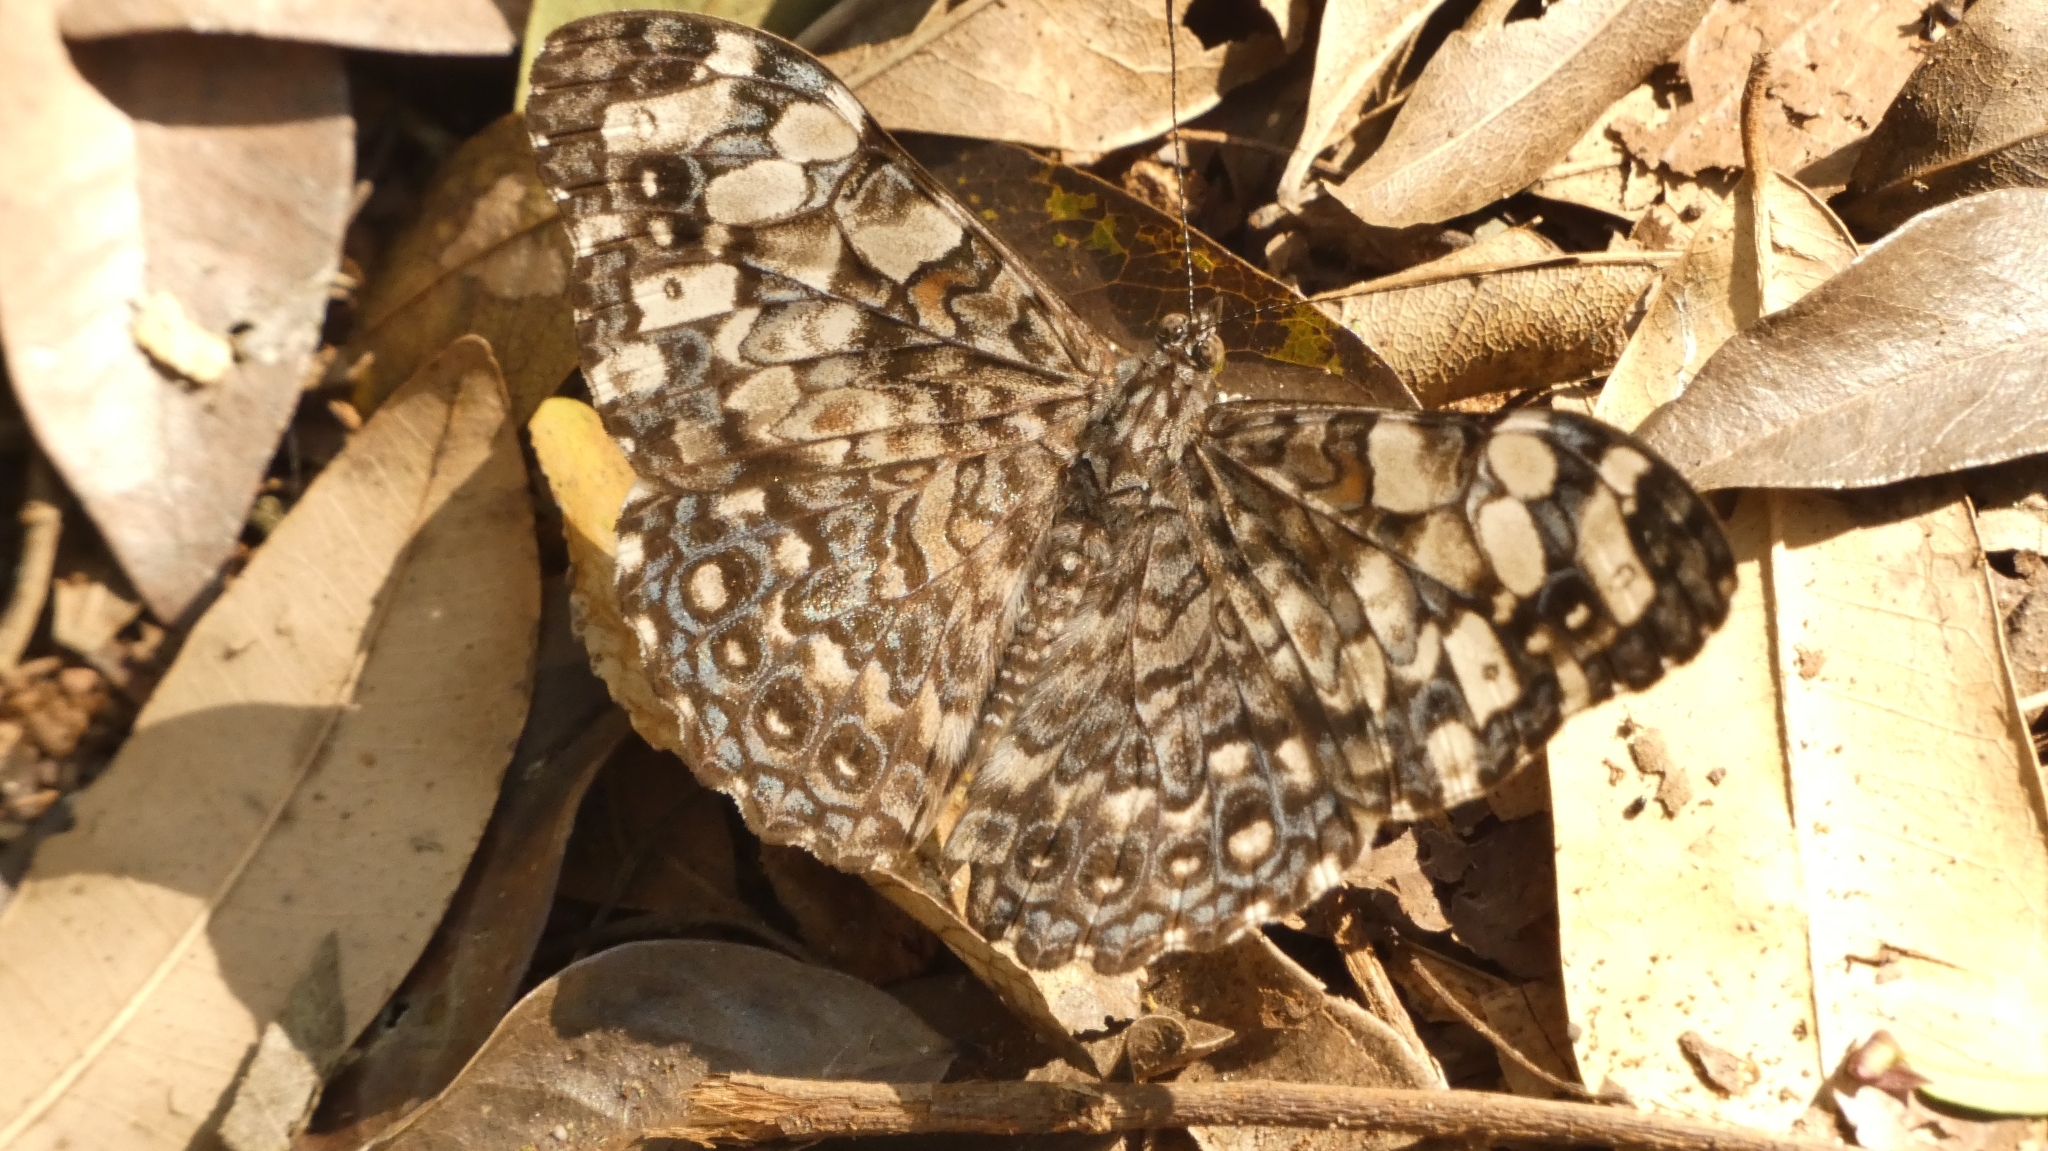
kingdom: Animalia
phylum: Arthropoda
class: Insecta
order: Lepidoptera
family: Nymphalidae
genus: Hamadryas
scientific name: Hamadryas epinome
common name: Epinome cracker
